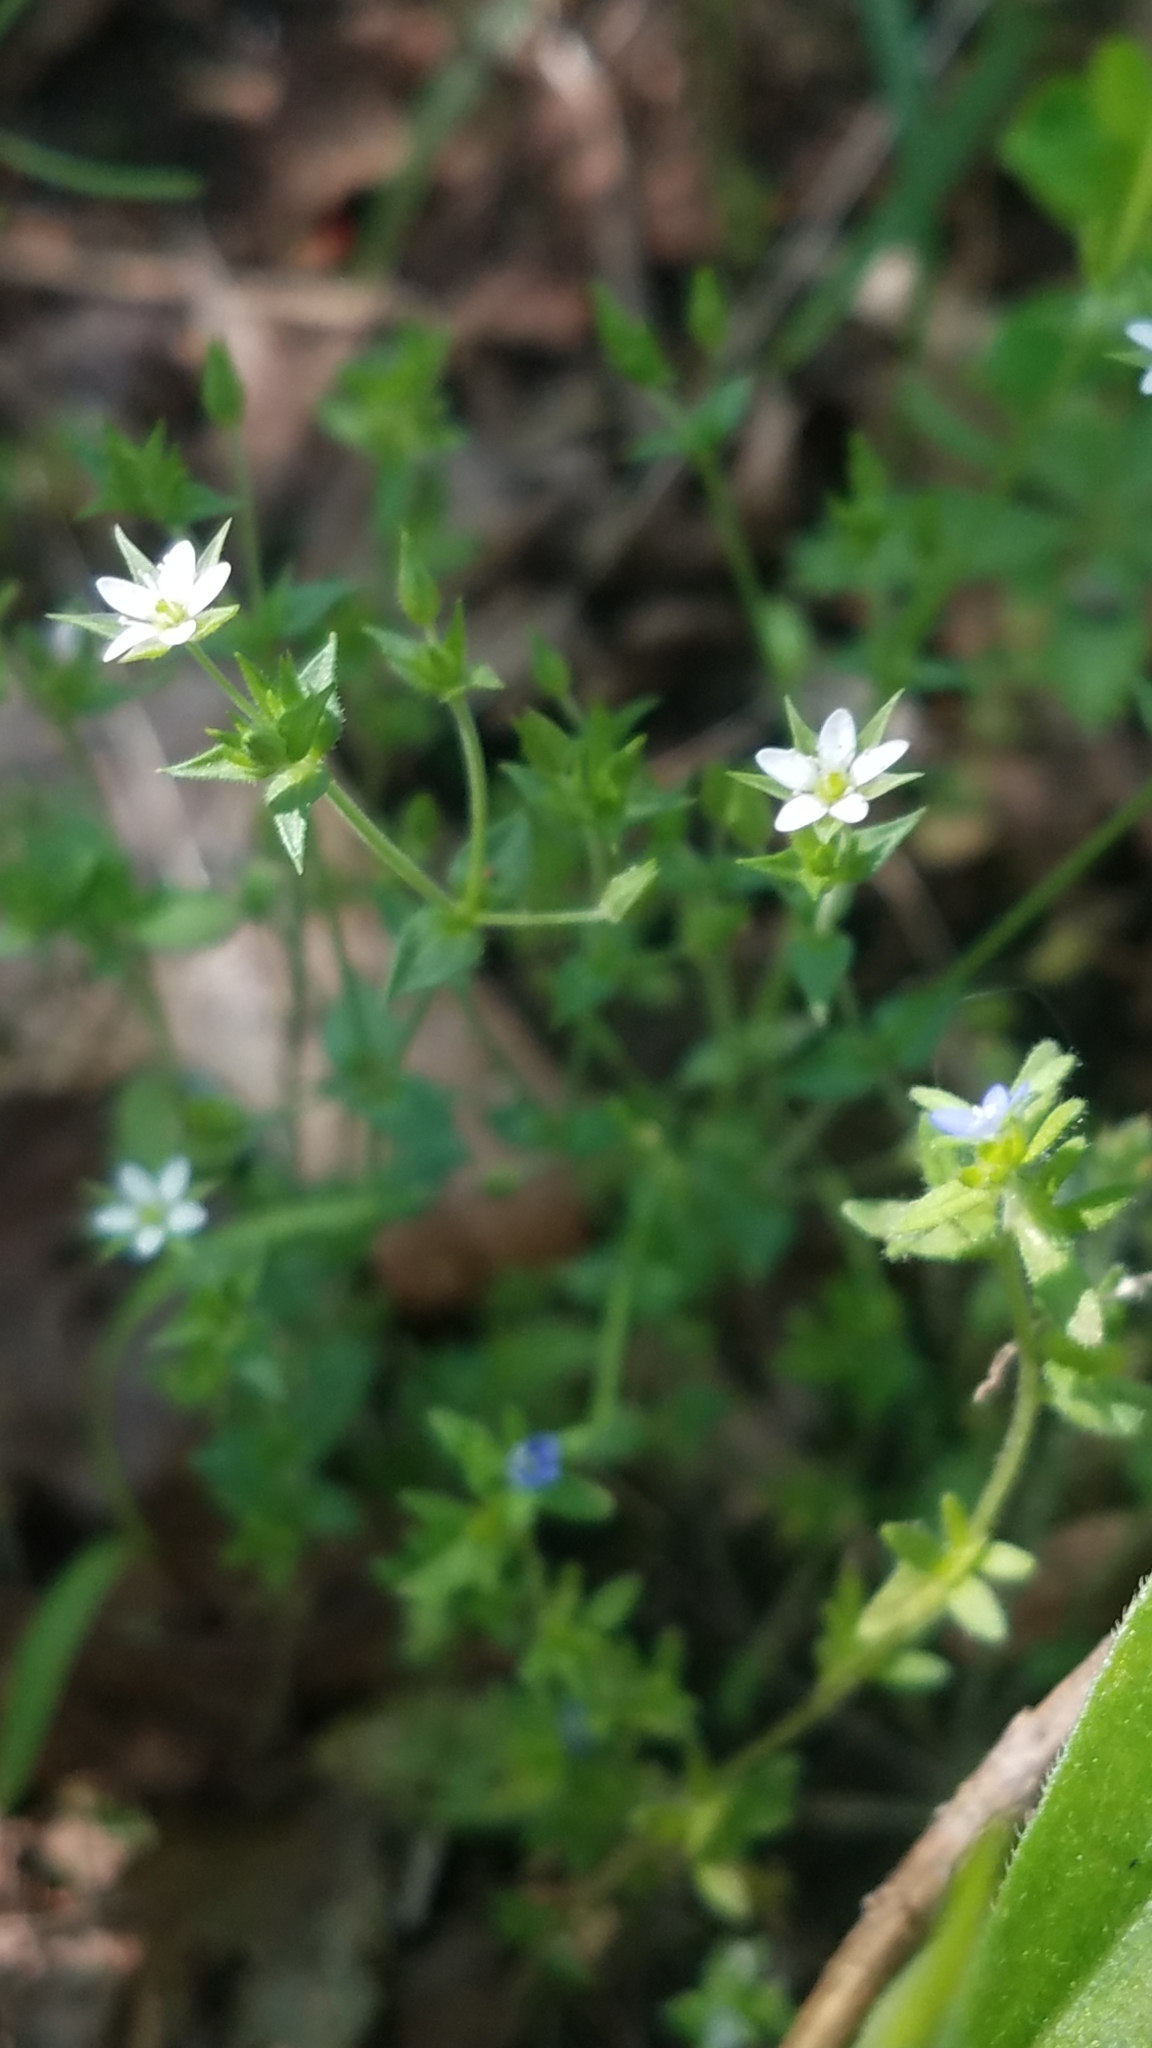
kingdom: Plantae
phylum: Tracheophyta
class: Magnoliopsida
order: Caryophyllales
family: Caryophyllaceae
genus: Arenaria
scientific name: Arenaria serpyllifolia
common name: Thyme-leaved sandwort
